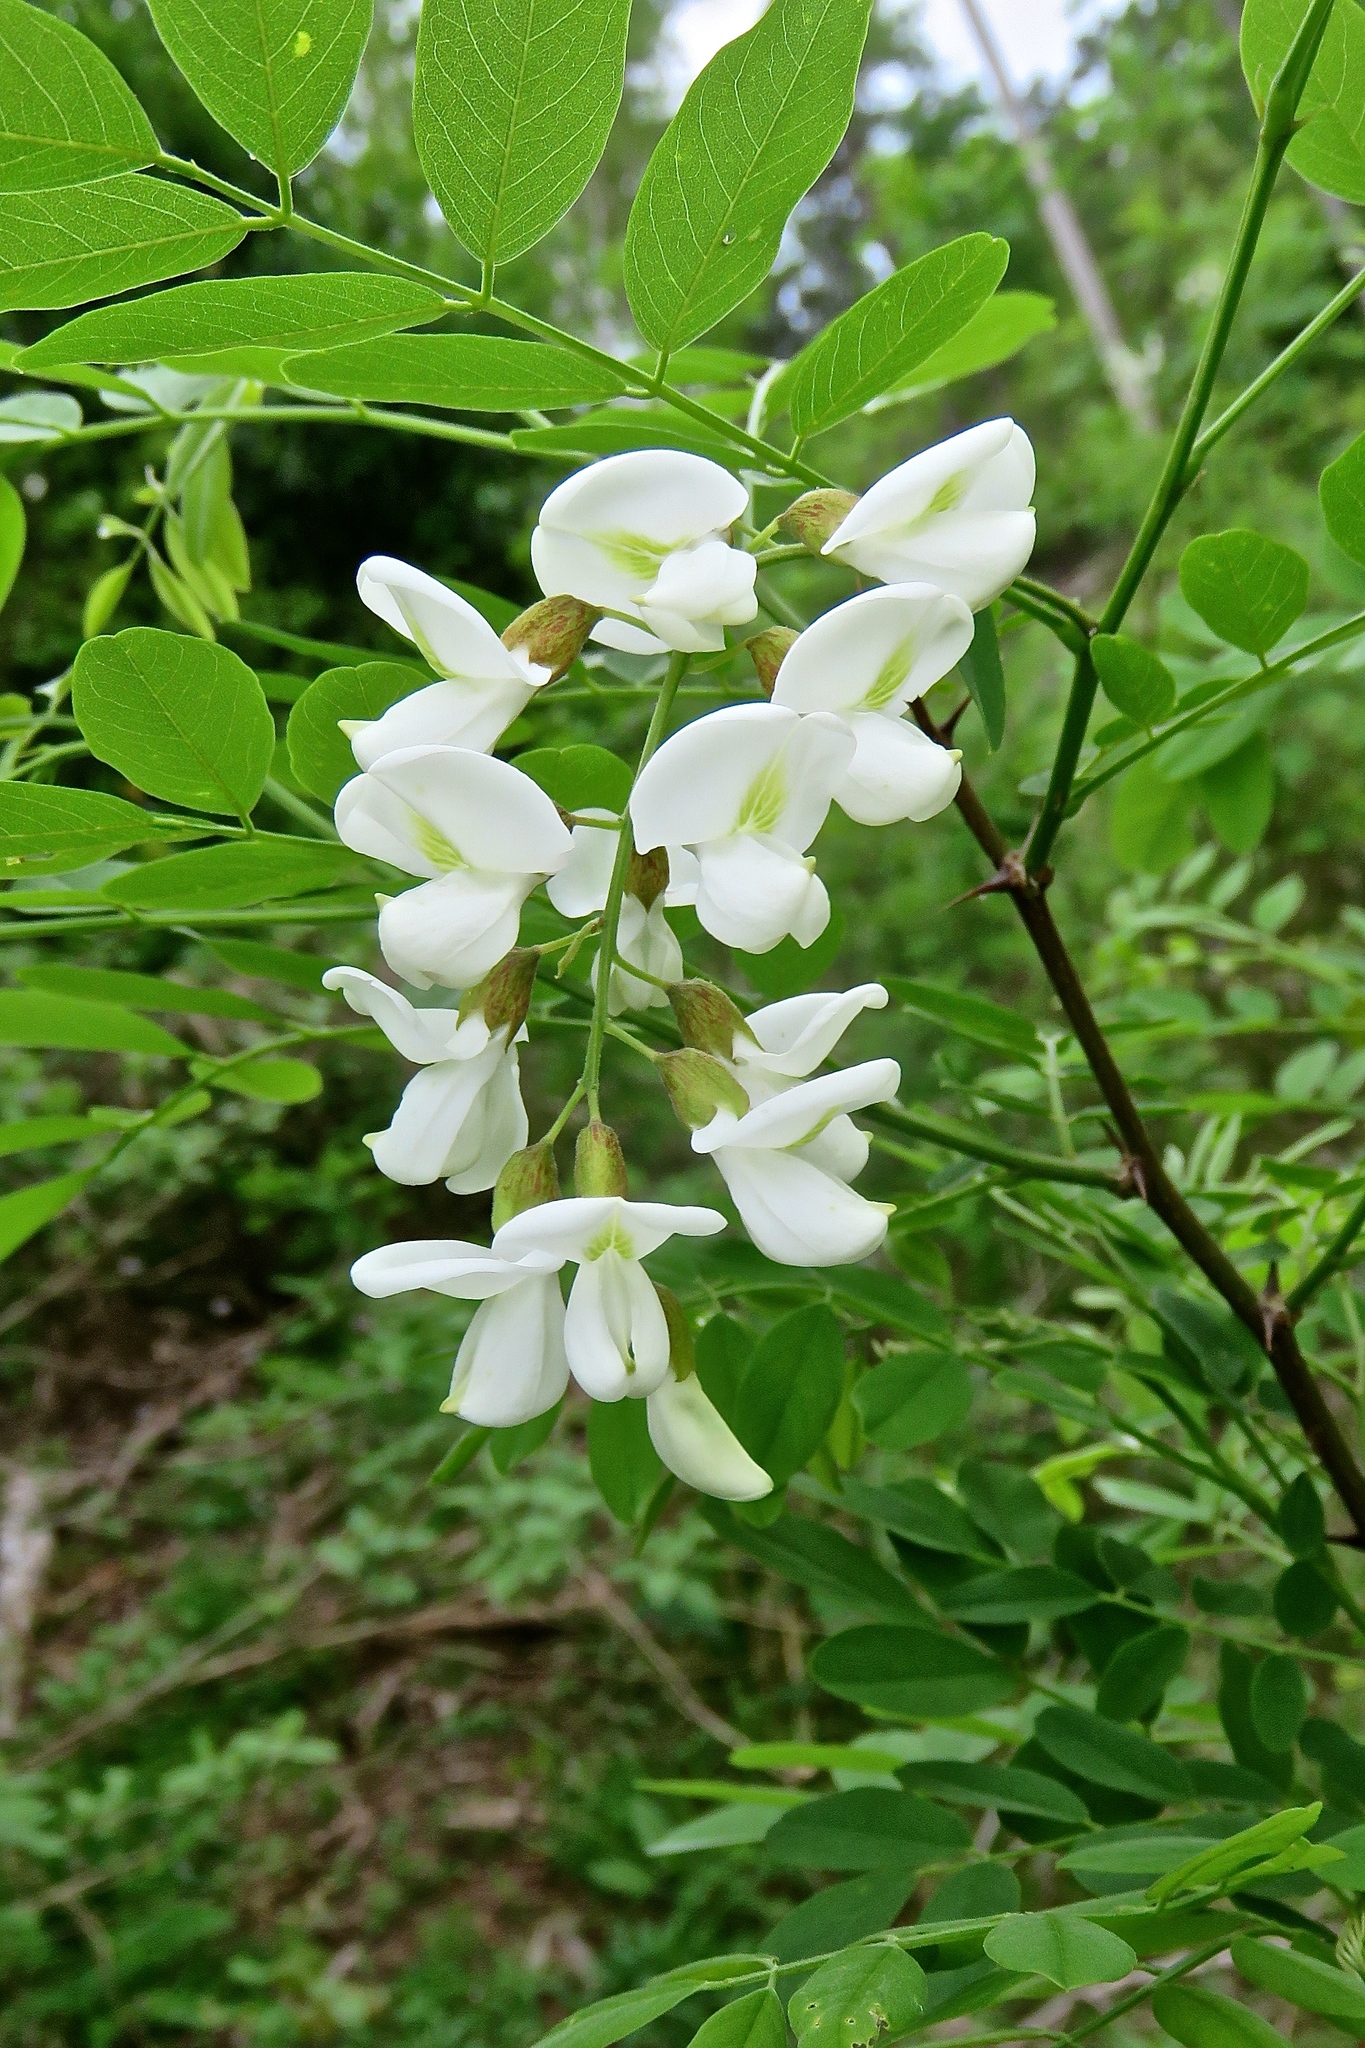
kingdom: Plantae
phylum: Tracheophyta
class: Magnoliopsida
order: Fabales
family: Fabaceae
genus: Robinia
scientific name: Robinia pseudoacacia
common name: Black locust
